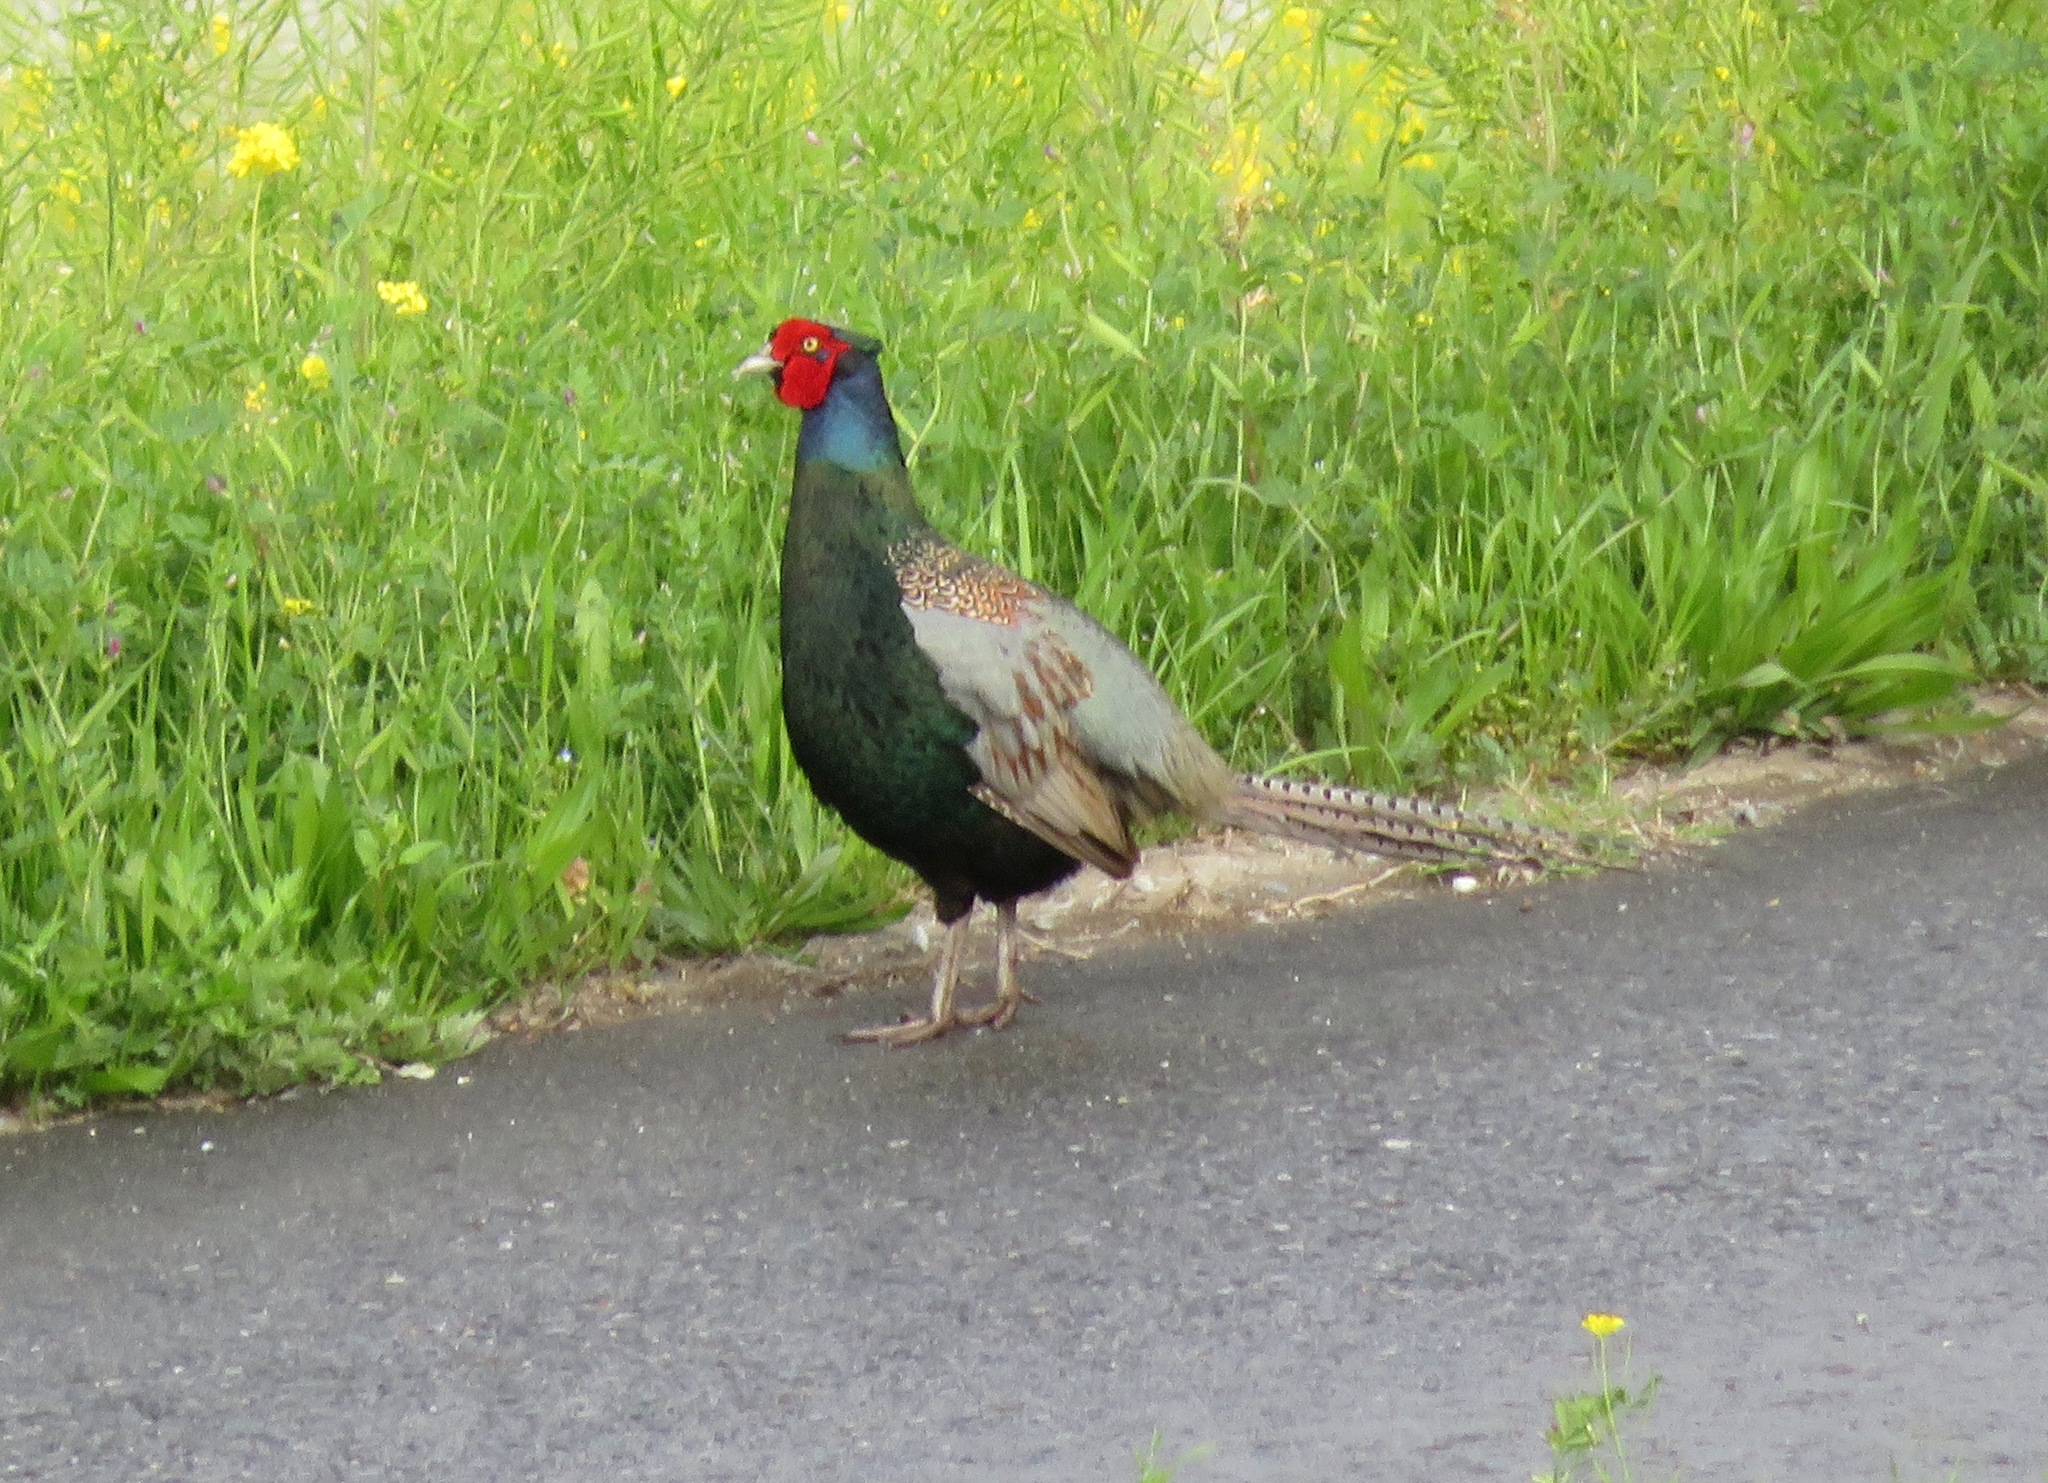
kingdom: Animalia
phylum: Chordata
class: Aves
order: Galliformes
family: Phasianidae
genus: Phasianus
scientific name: Phasianus versicolor
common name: Green pheasant
